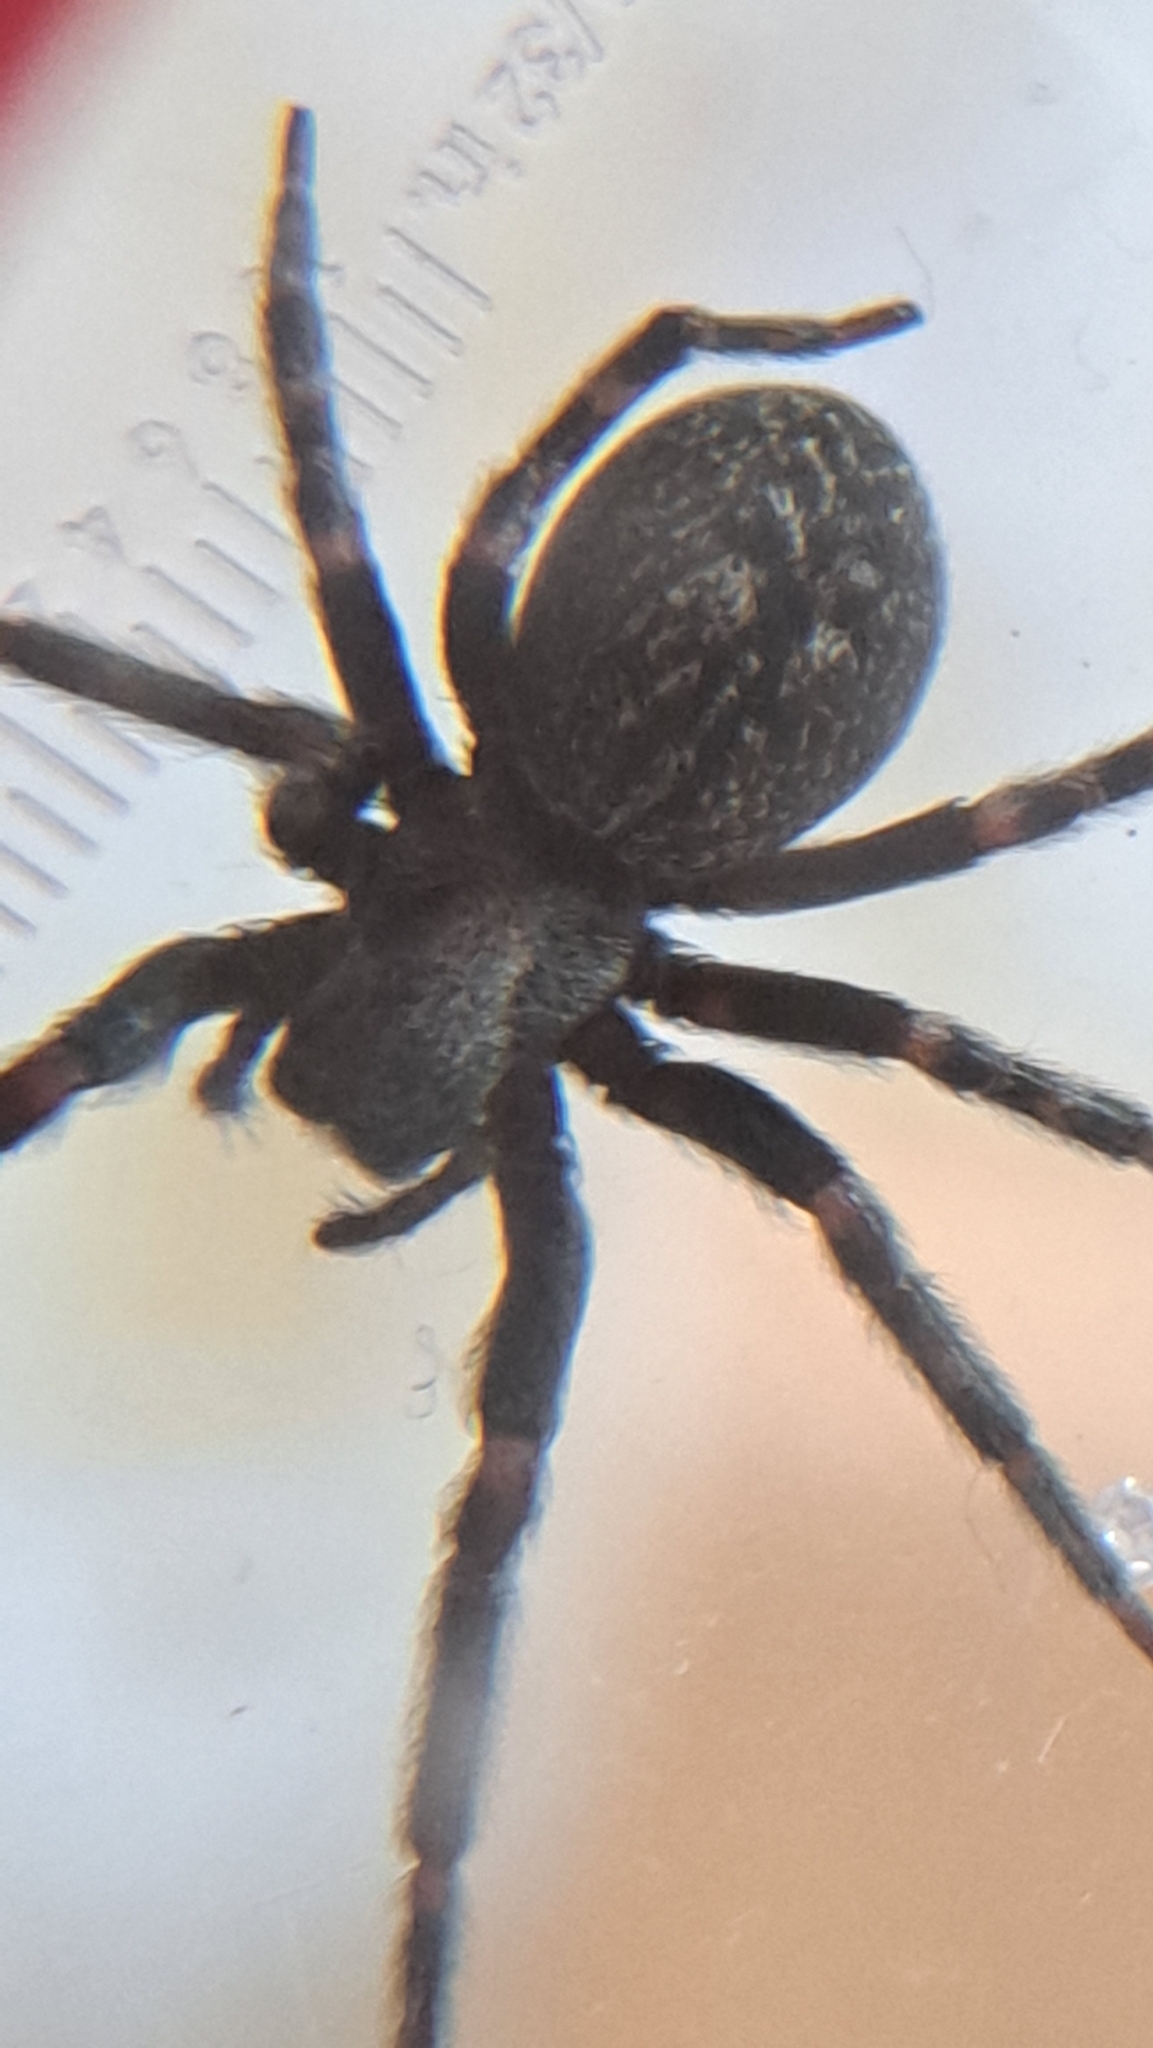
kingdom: Animalia
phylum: Arthropoda
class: Arachnida
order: Araneae
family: Desidae
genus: Badumna
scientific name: Badumna insignis
